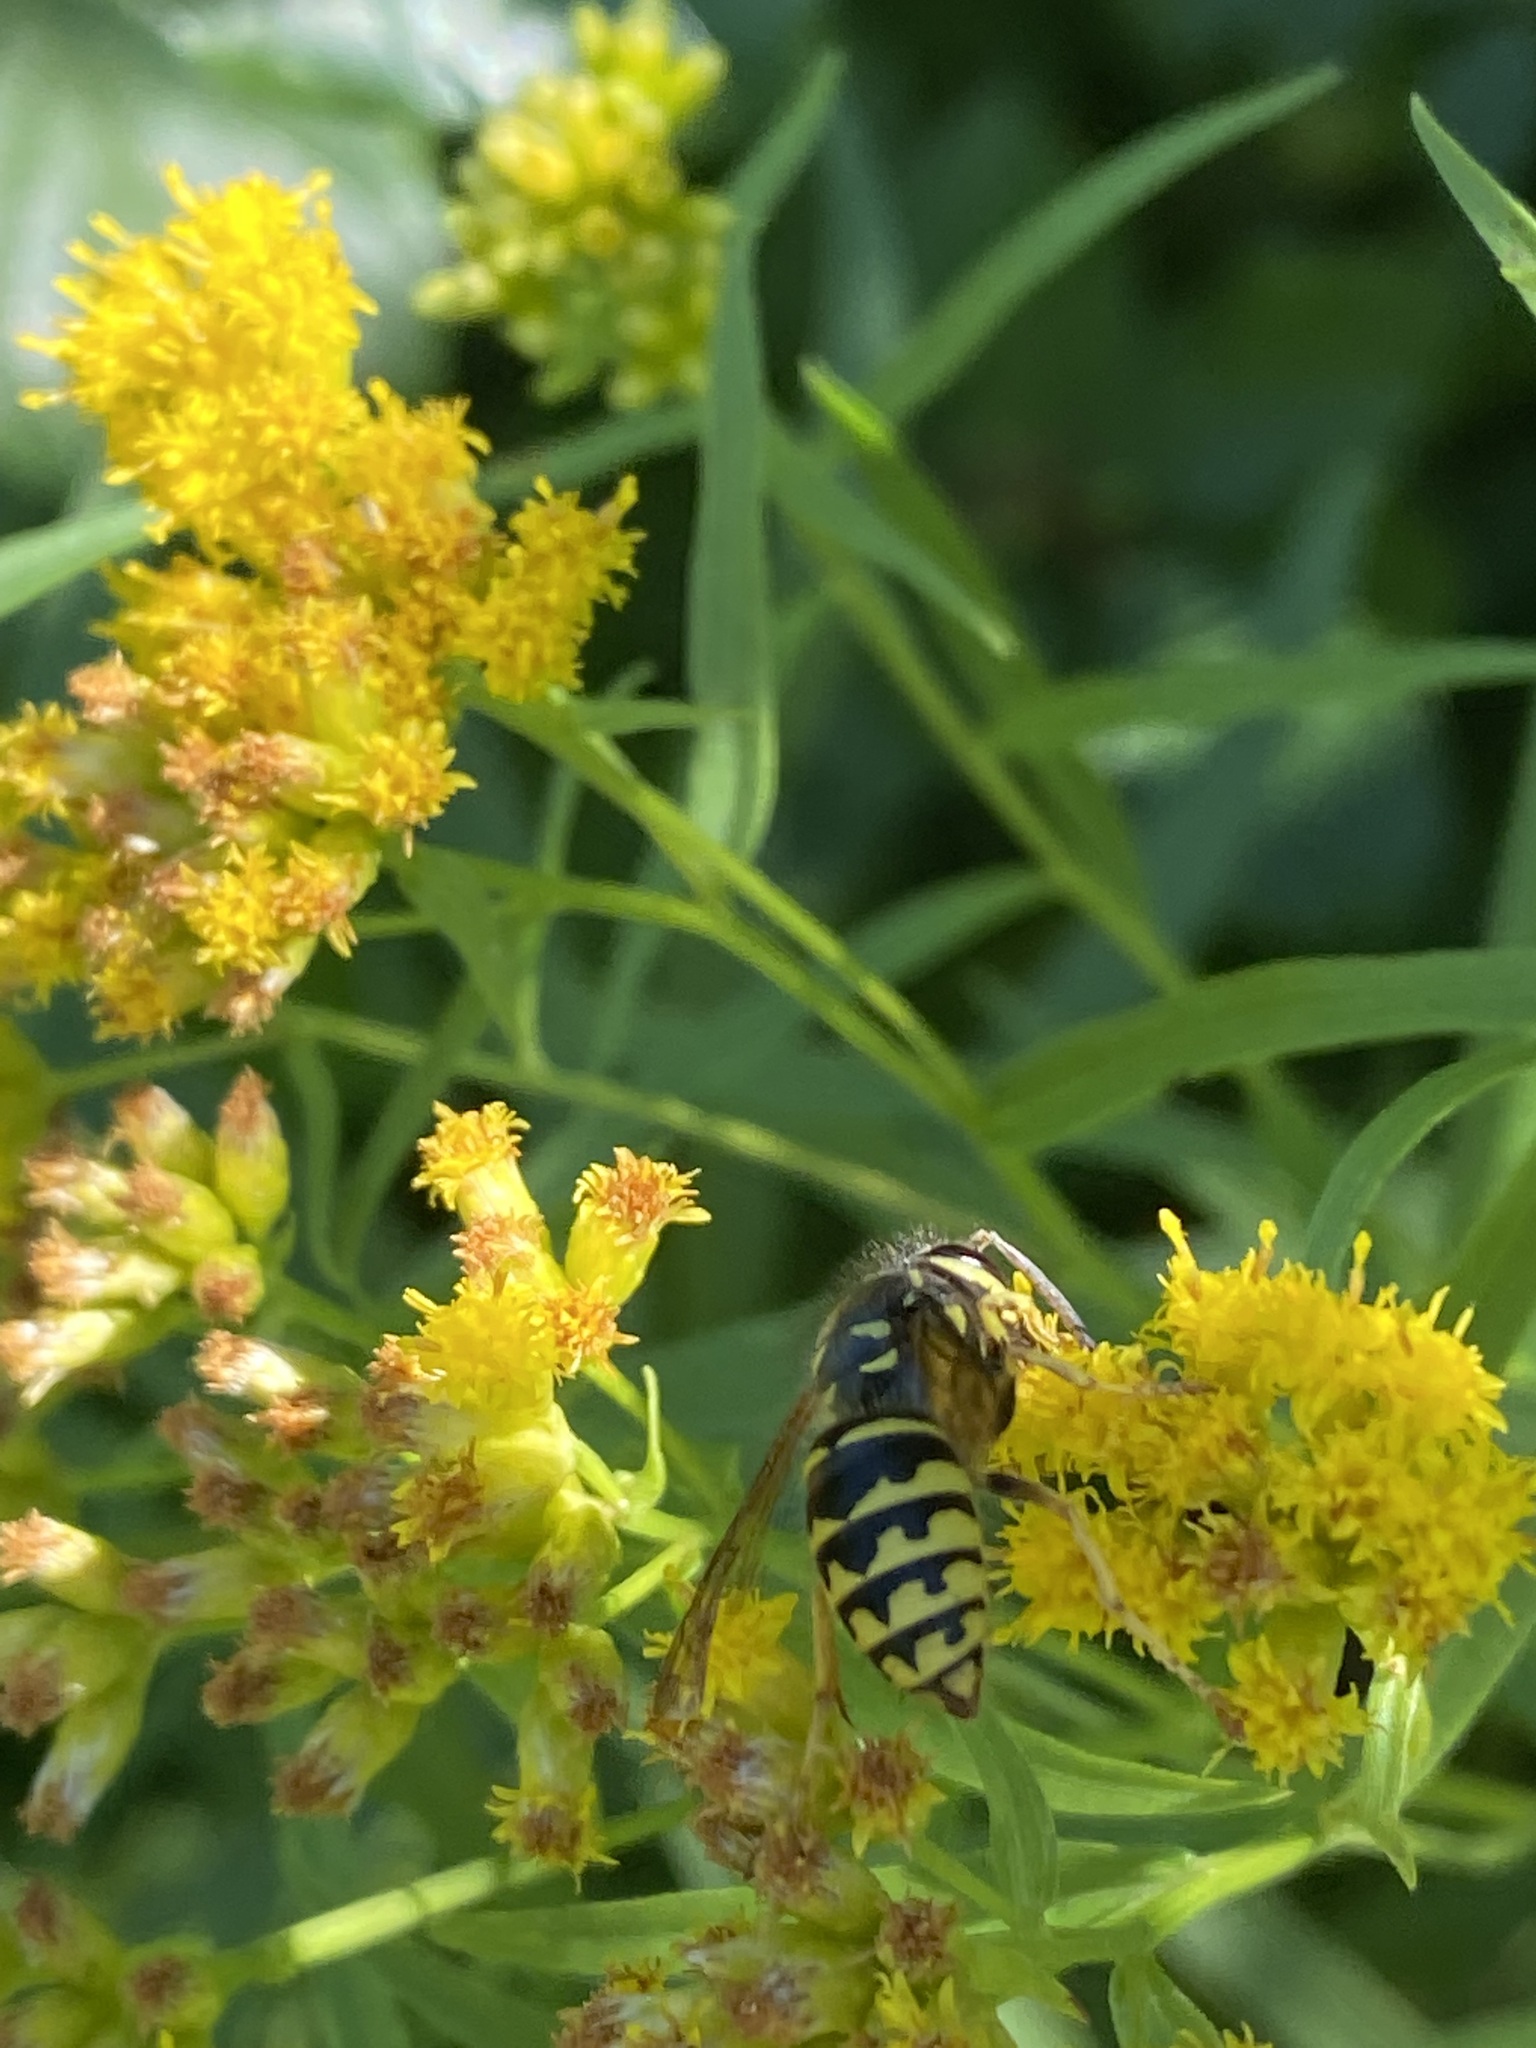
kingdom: Animalia
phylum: Arthropoda
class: Insecta
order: Hymenoptera
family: Vespidae
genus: Dolichovespula
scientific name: Dolichovespula arenaria
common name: Aerial yellowjacket
